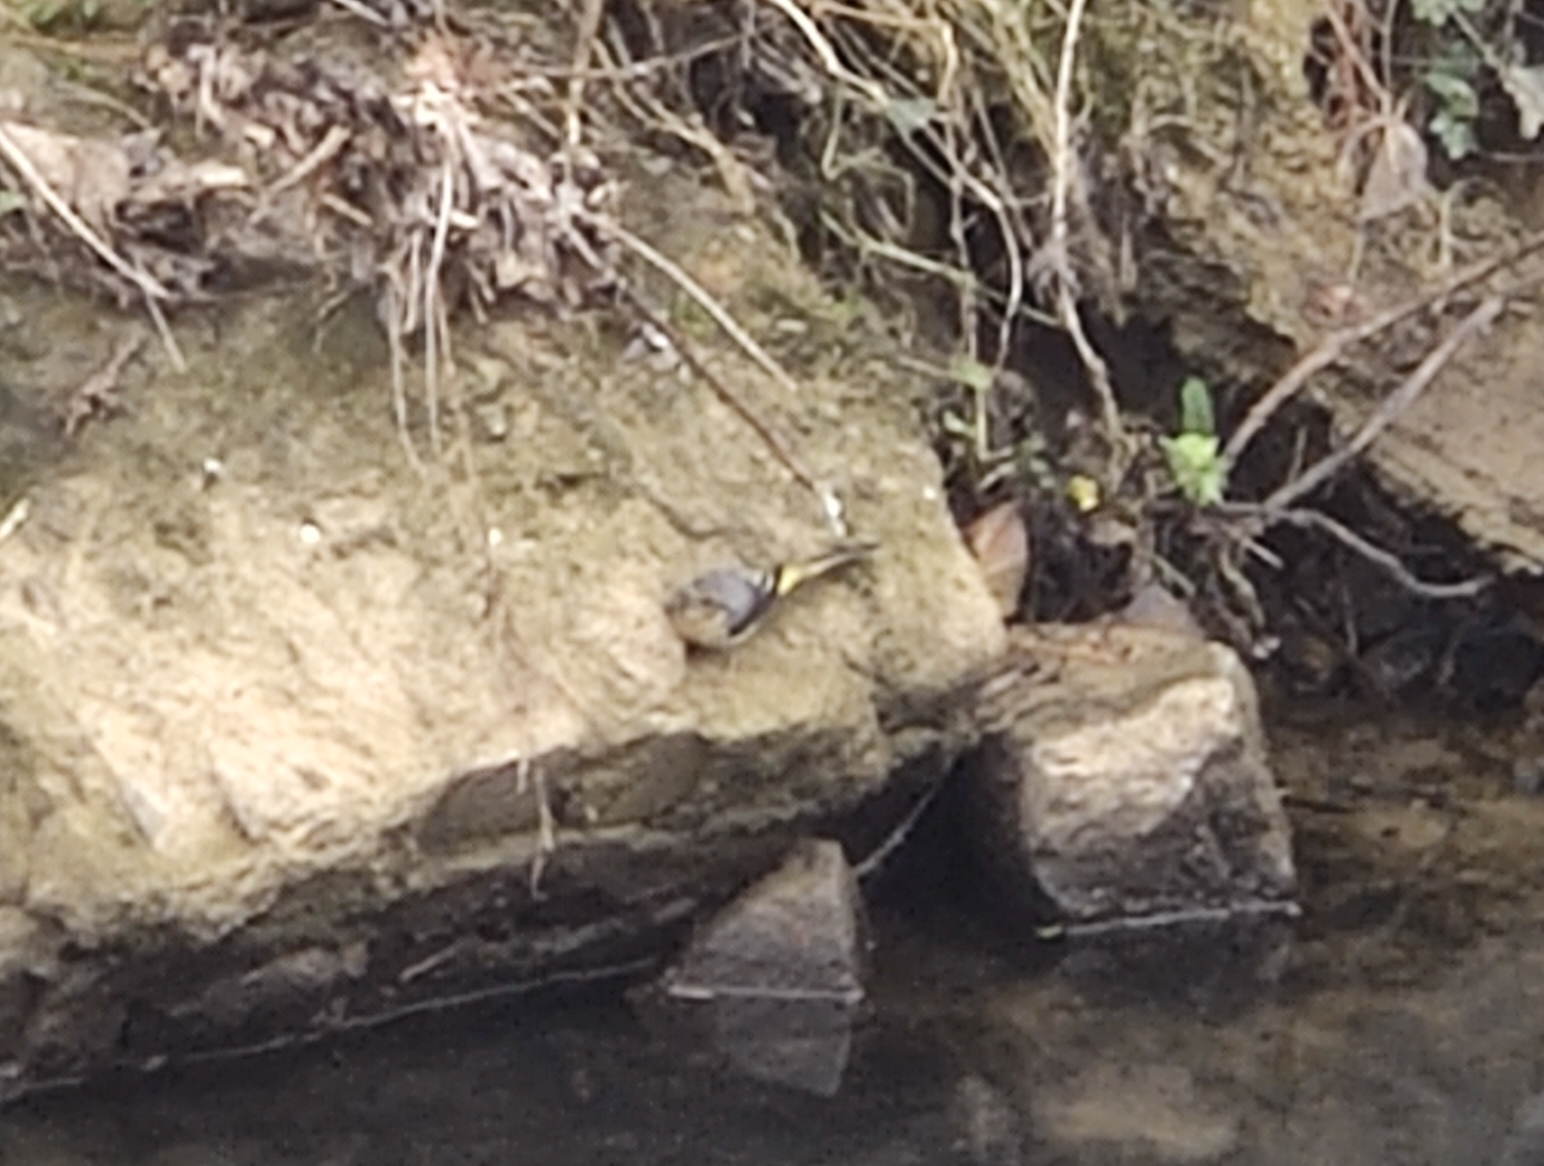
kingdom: Animalia
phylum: Chordata
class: Aves
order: Passeriformes
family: Motacillidae
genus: Motacilla
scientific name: Motacilla cinerea
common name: Grey wagtail
